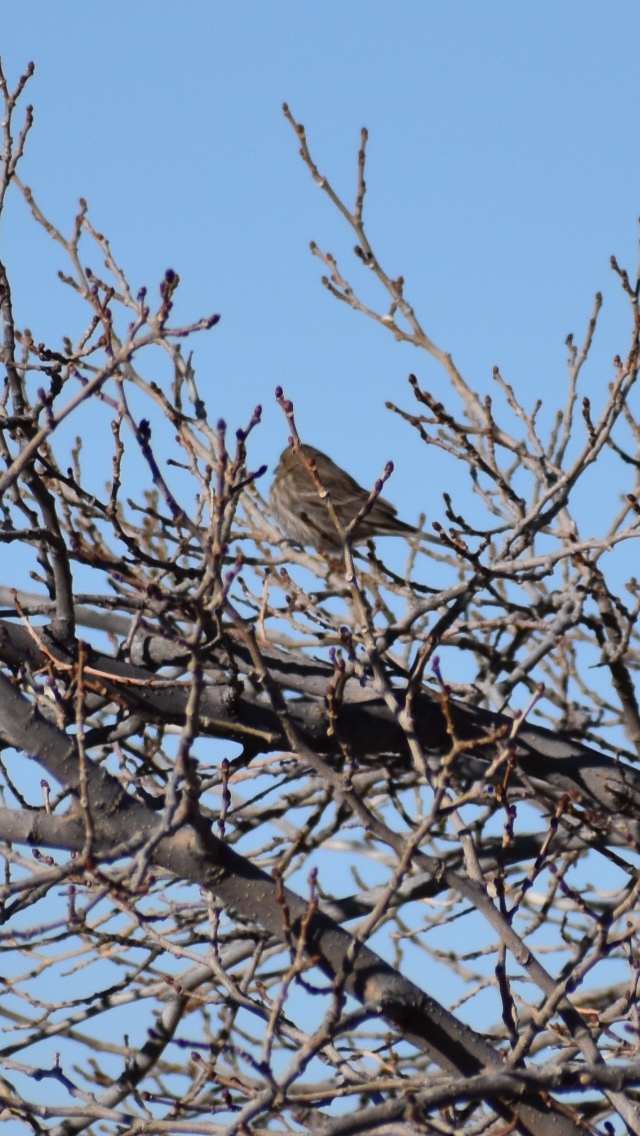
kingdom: Animalia
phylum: Chordata
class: Aves
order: Passeriformes
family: Fringillidae
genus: Haemorhous
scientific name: Haemorhous mexicanus
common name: House finch
